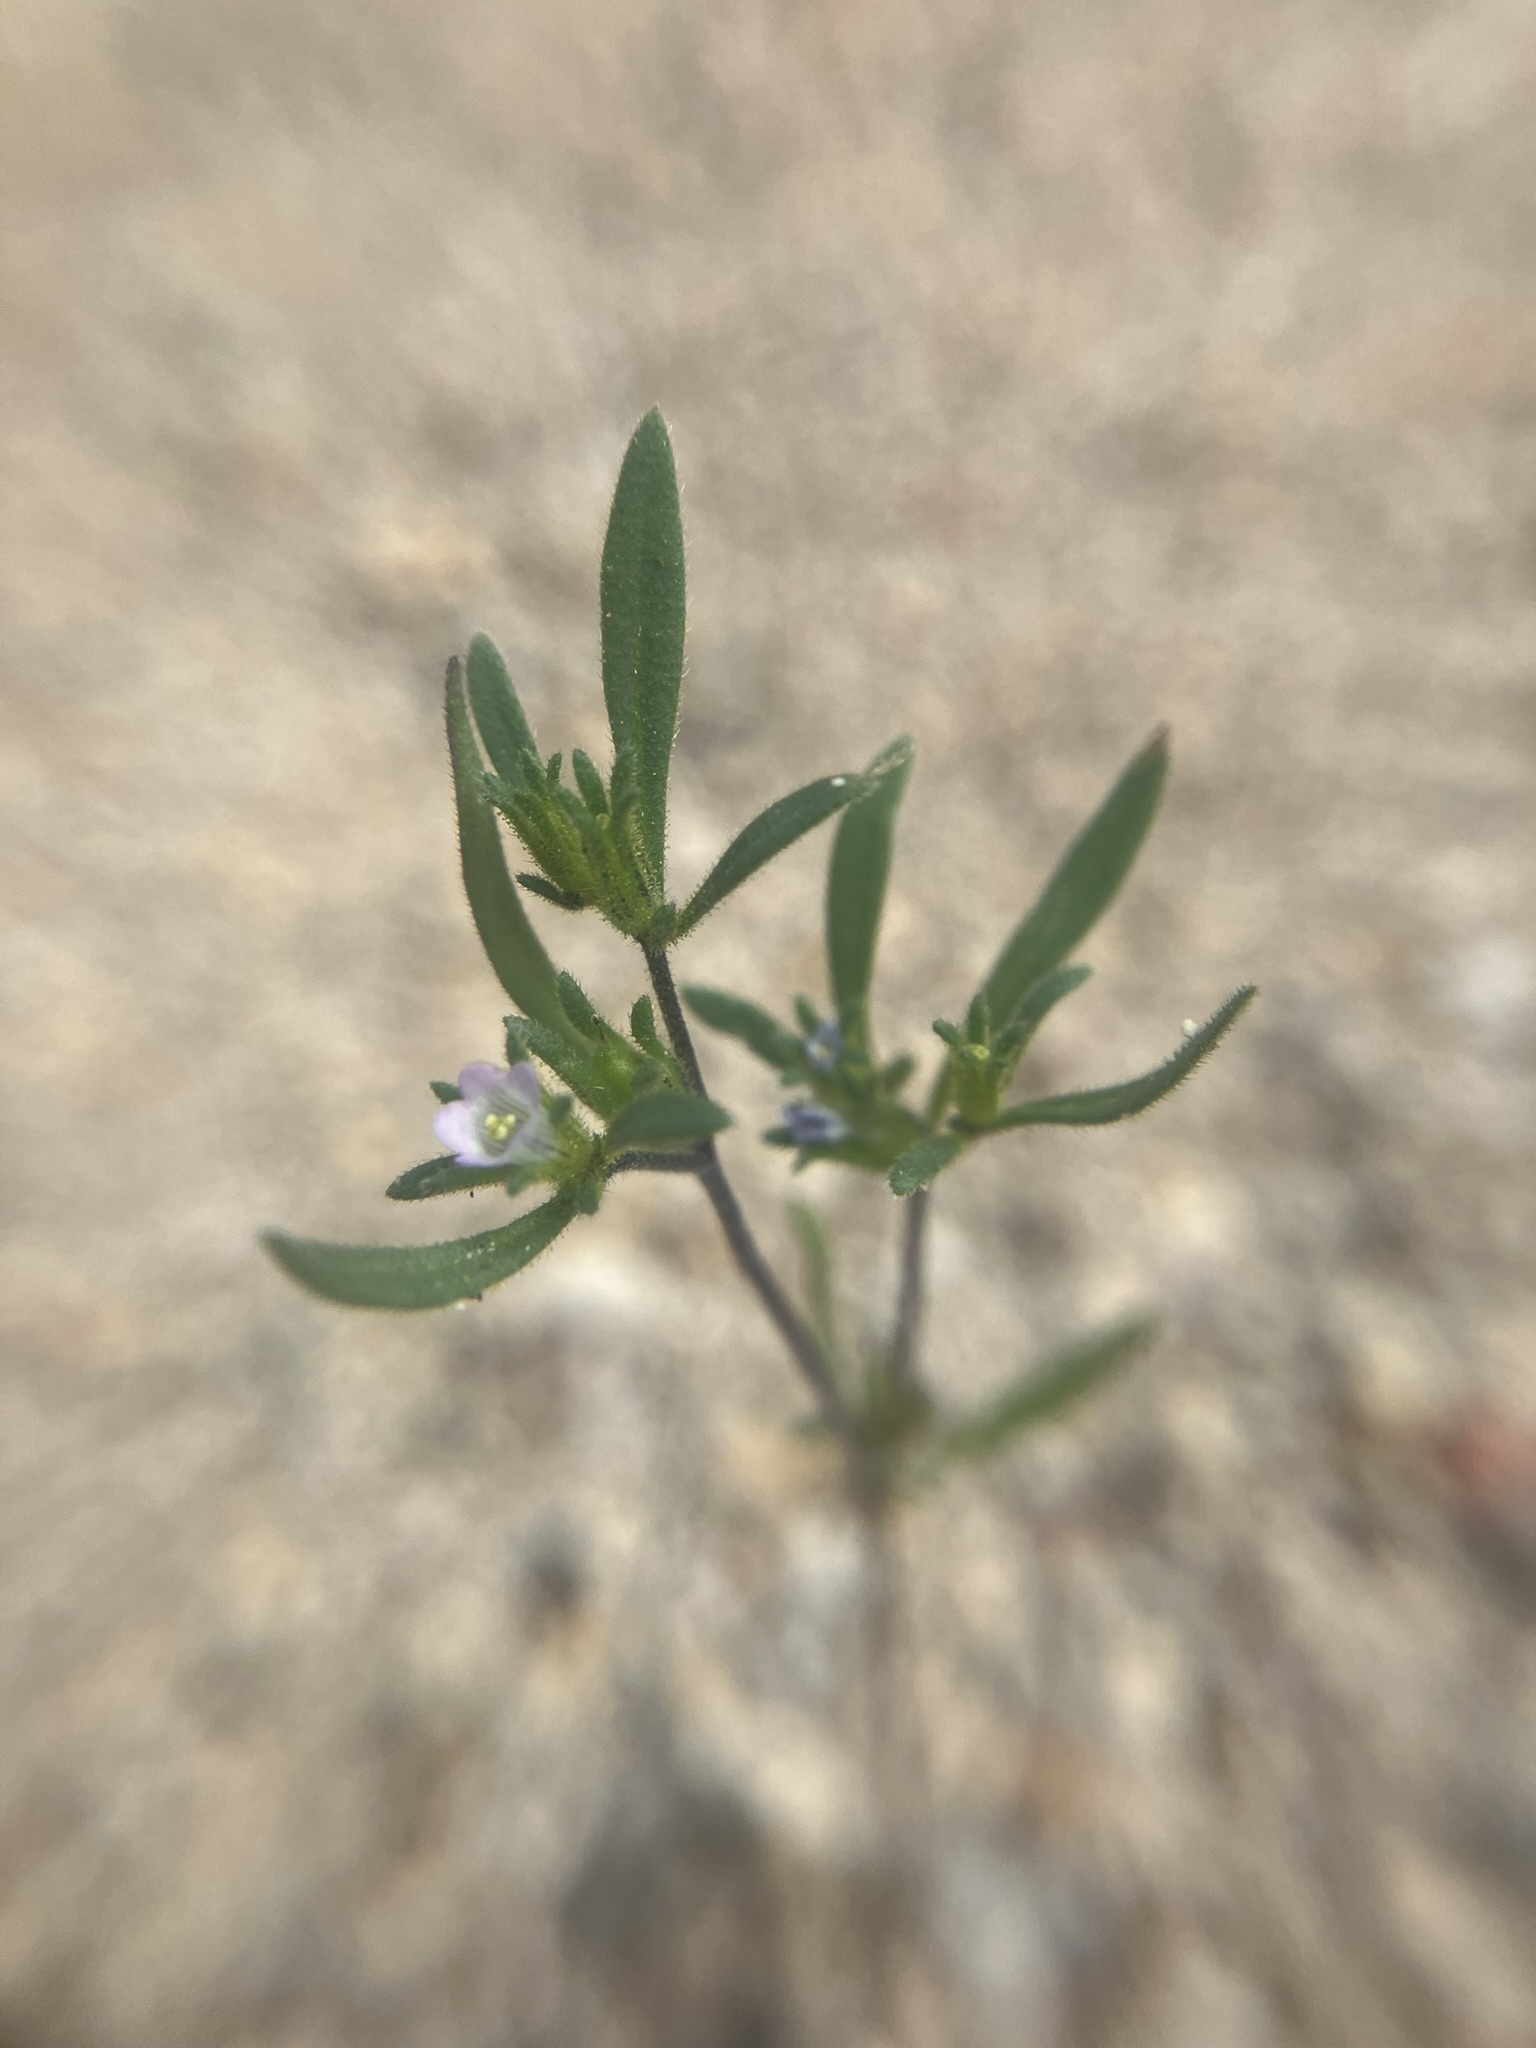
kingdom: Plantae
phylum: Tracheophyta
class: Magnoliopsida
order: Boraginales
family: Namaceae
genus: Nama
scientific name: Nama dichotoma
